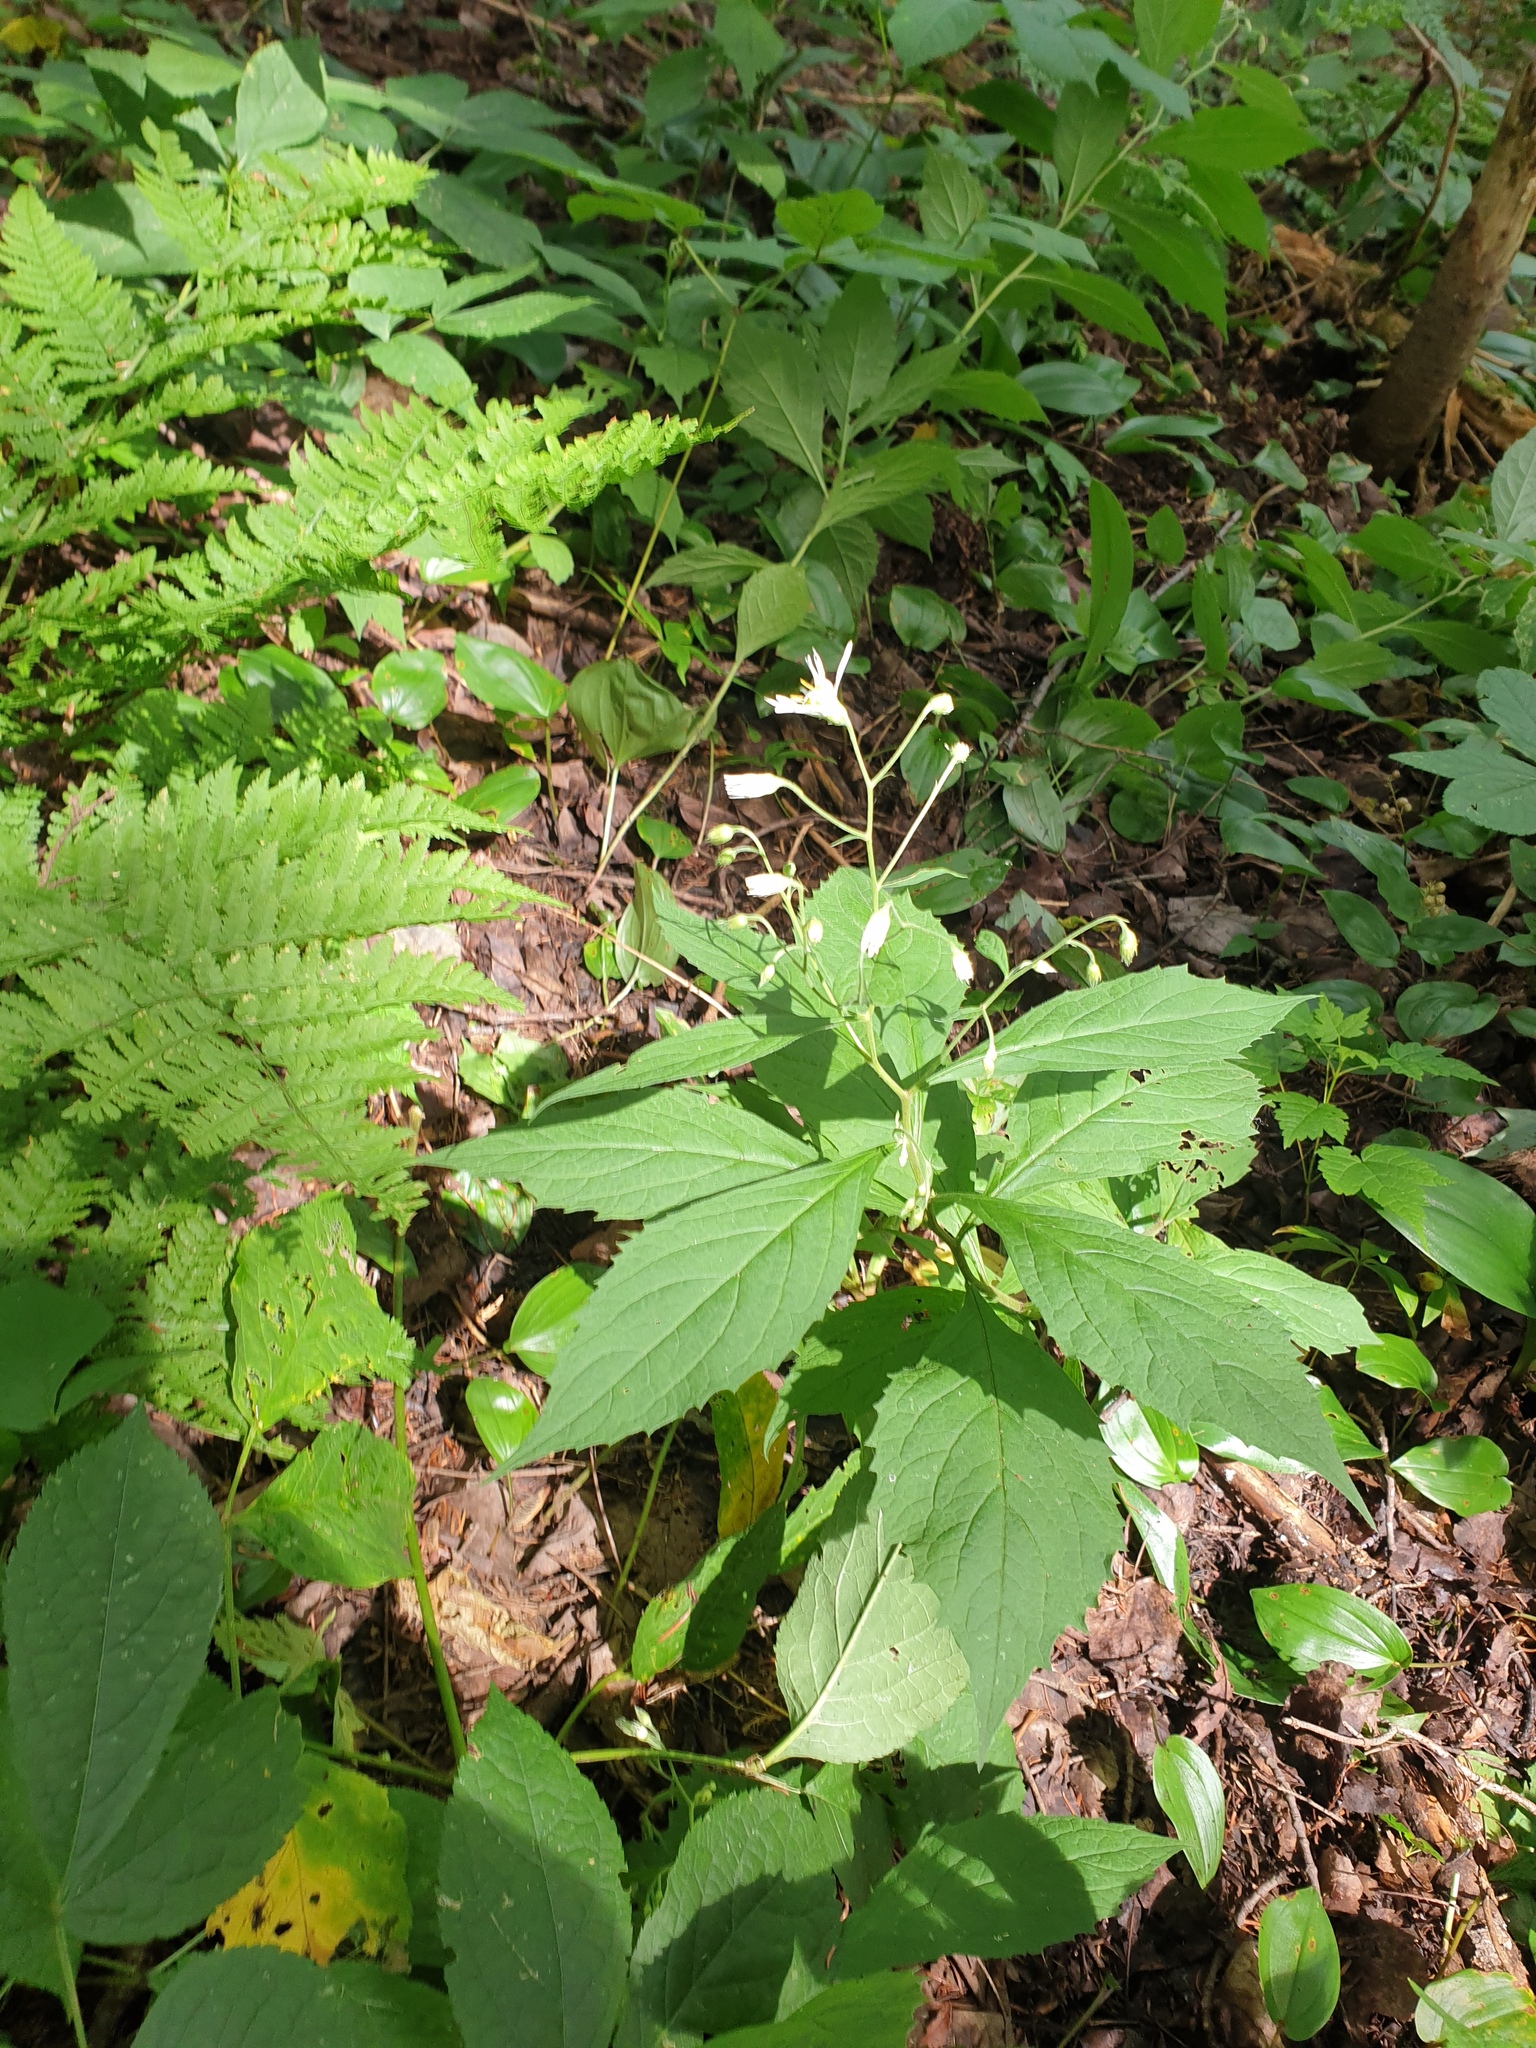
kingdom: Plantae
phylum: Tracheophyta
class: Magnoliopsida
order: Asterales
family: Asteraceae
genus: Oclemena
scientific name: Oclemena acuminata
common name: Mountain aster
